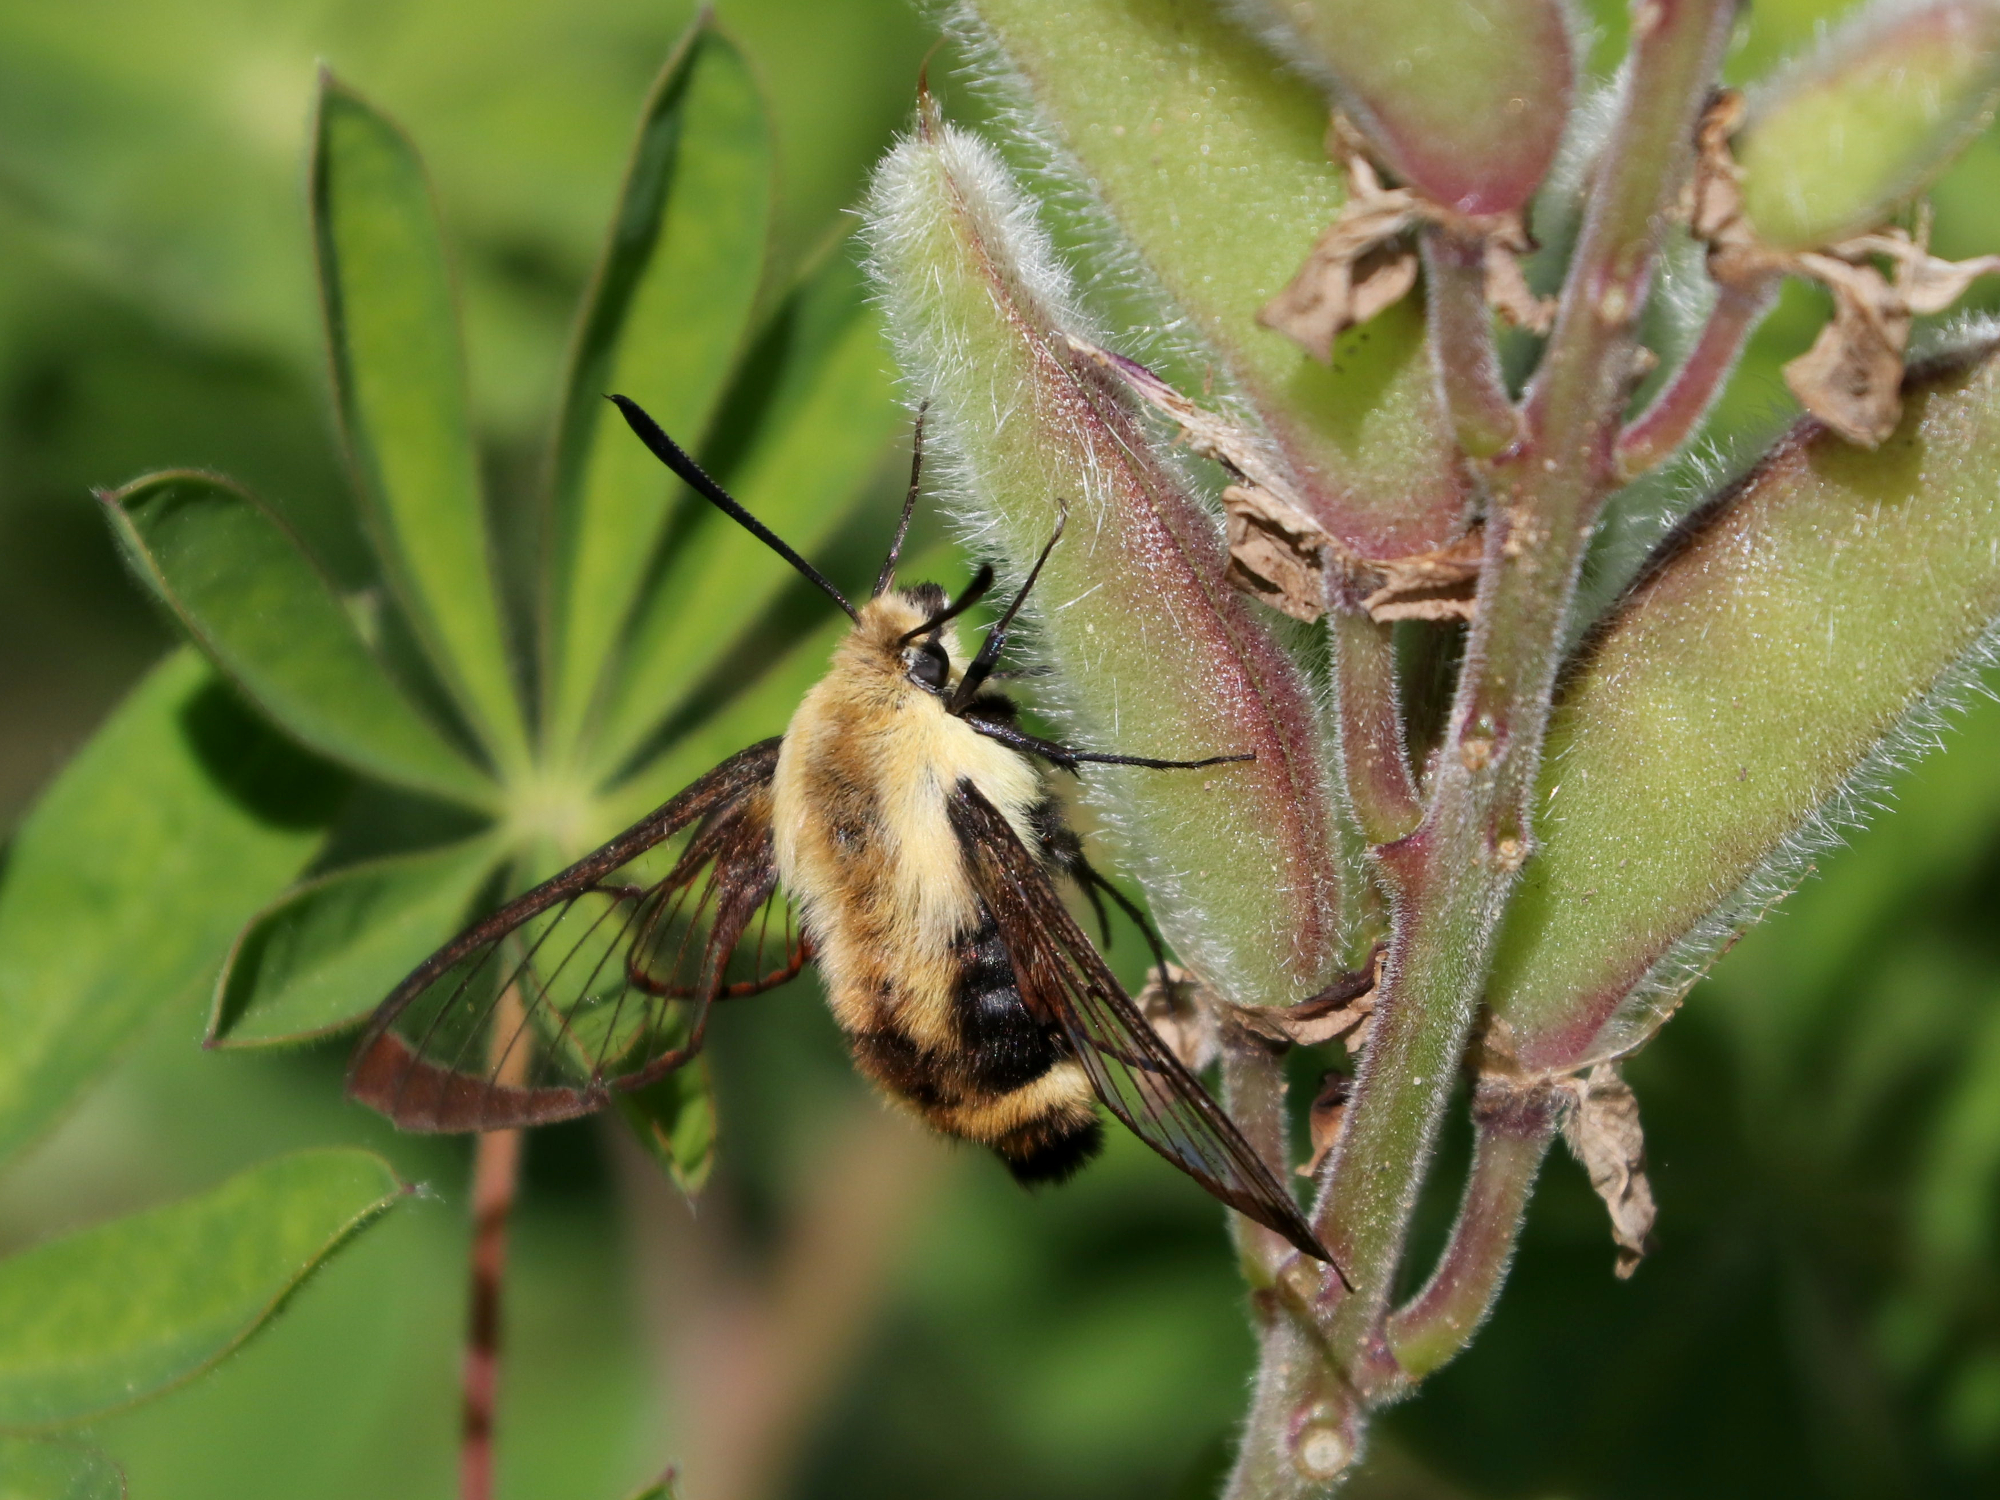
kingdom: Animalia
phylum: Arthropoda
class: Insecta
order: Lepidoptera
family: Sphingidae
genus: Hemaris
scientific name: Hemaris diffinis
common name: Bumblebee moth
